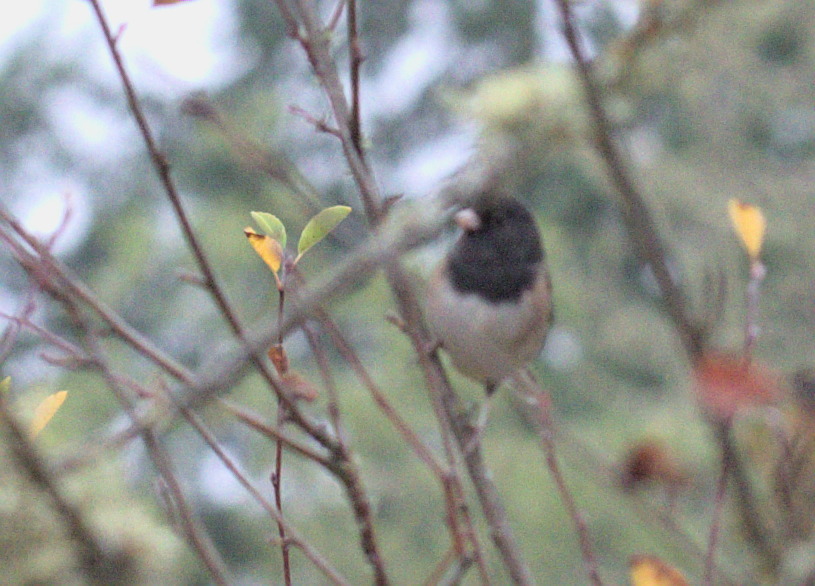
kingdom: Animalia
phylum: Chordata
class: Aves
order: Passeriformes
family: Passerellidae
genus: Junco
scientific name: Junco hyemalis
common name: Dark-eyed junco
